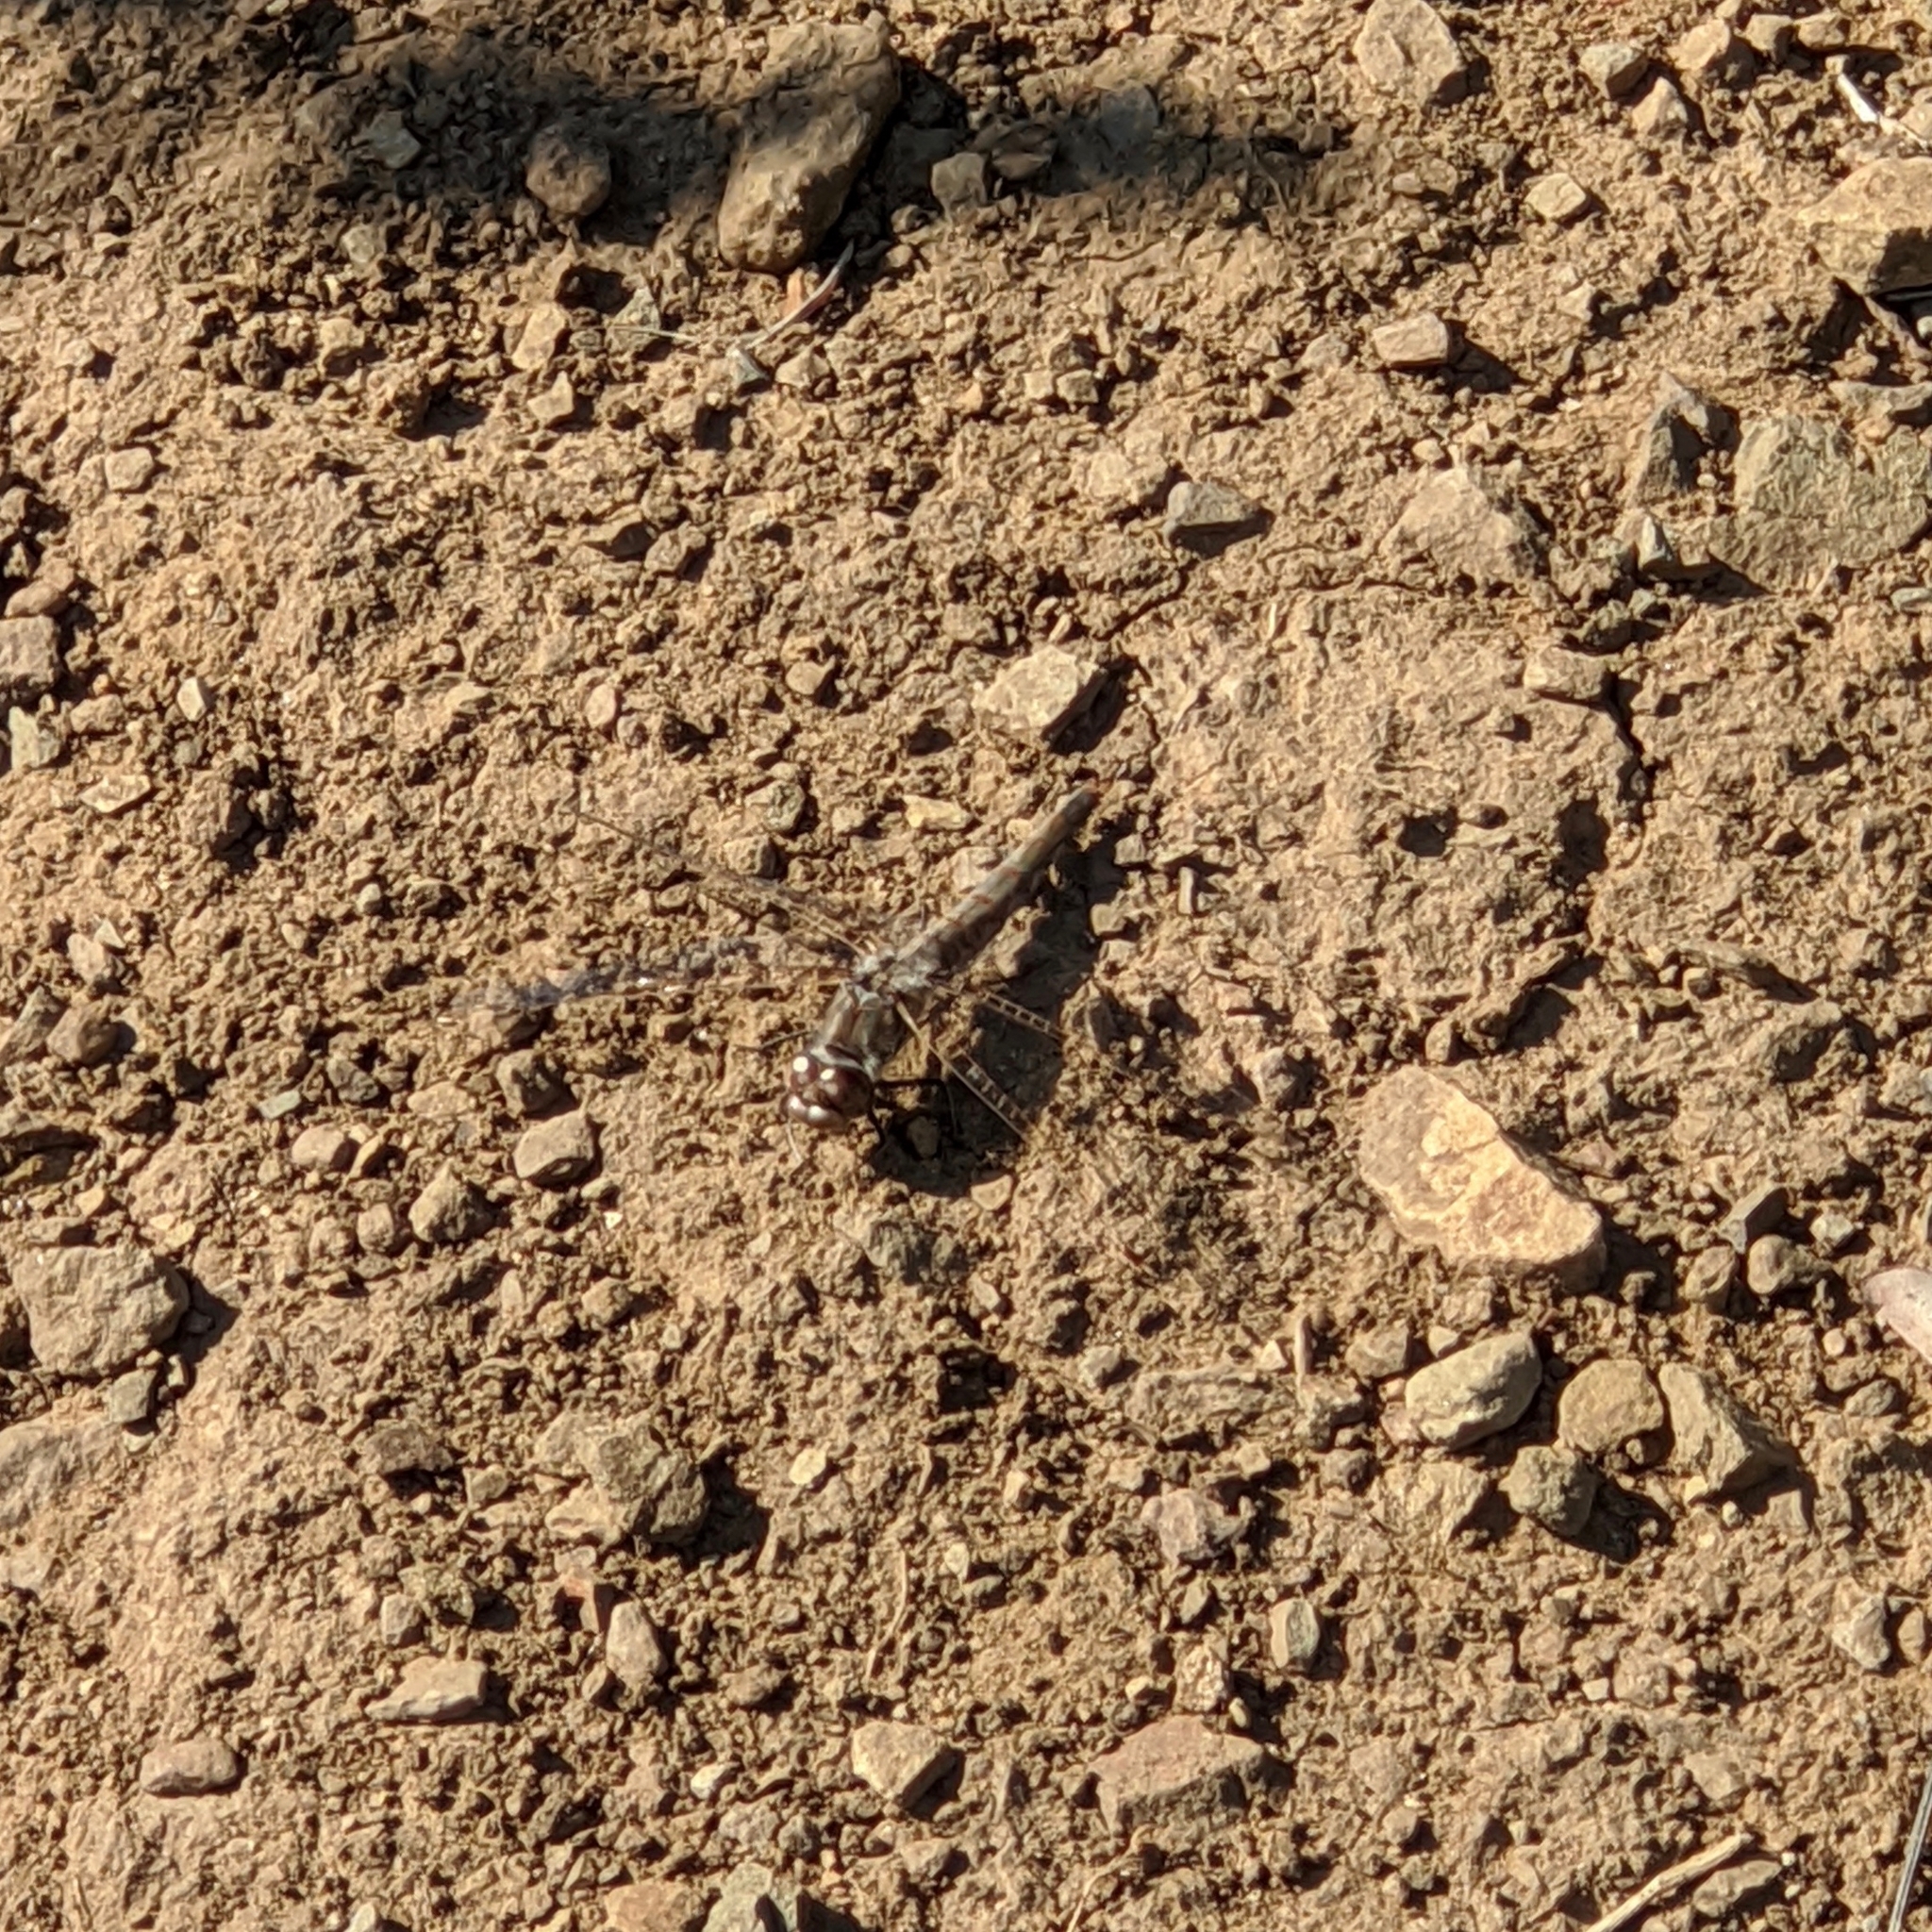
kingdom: Animalia
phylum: Arthropoda
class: Insecta
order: Odonata
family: Libellulidae
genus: Sympetrum
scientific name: Sympetrum corruptum
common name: Variegated meadowhawk
